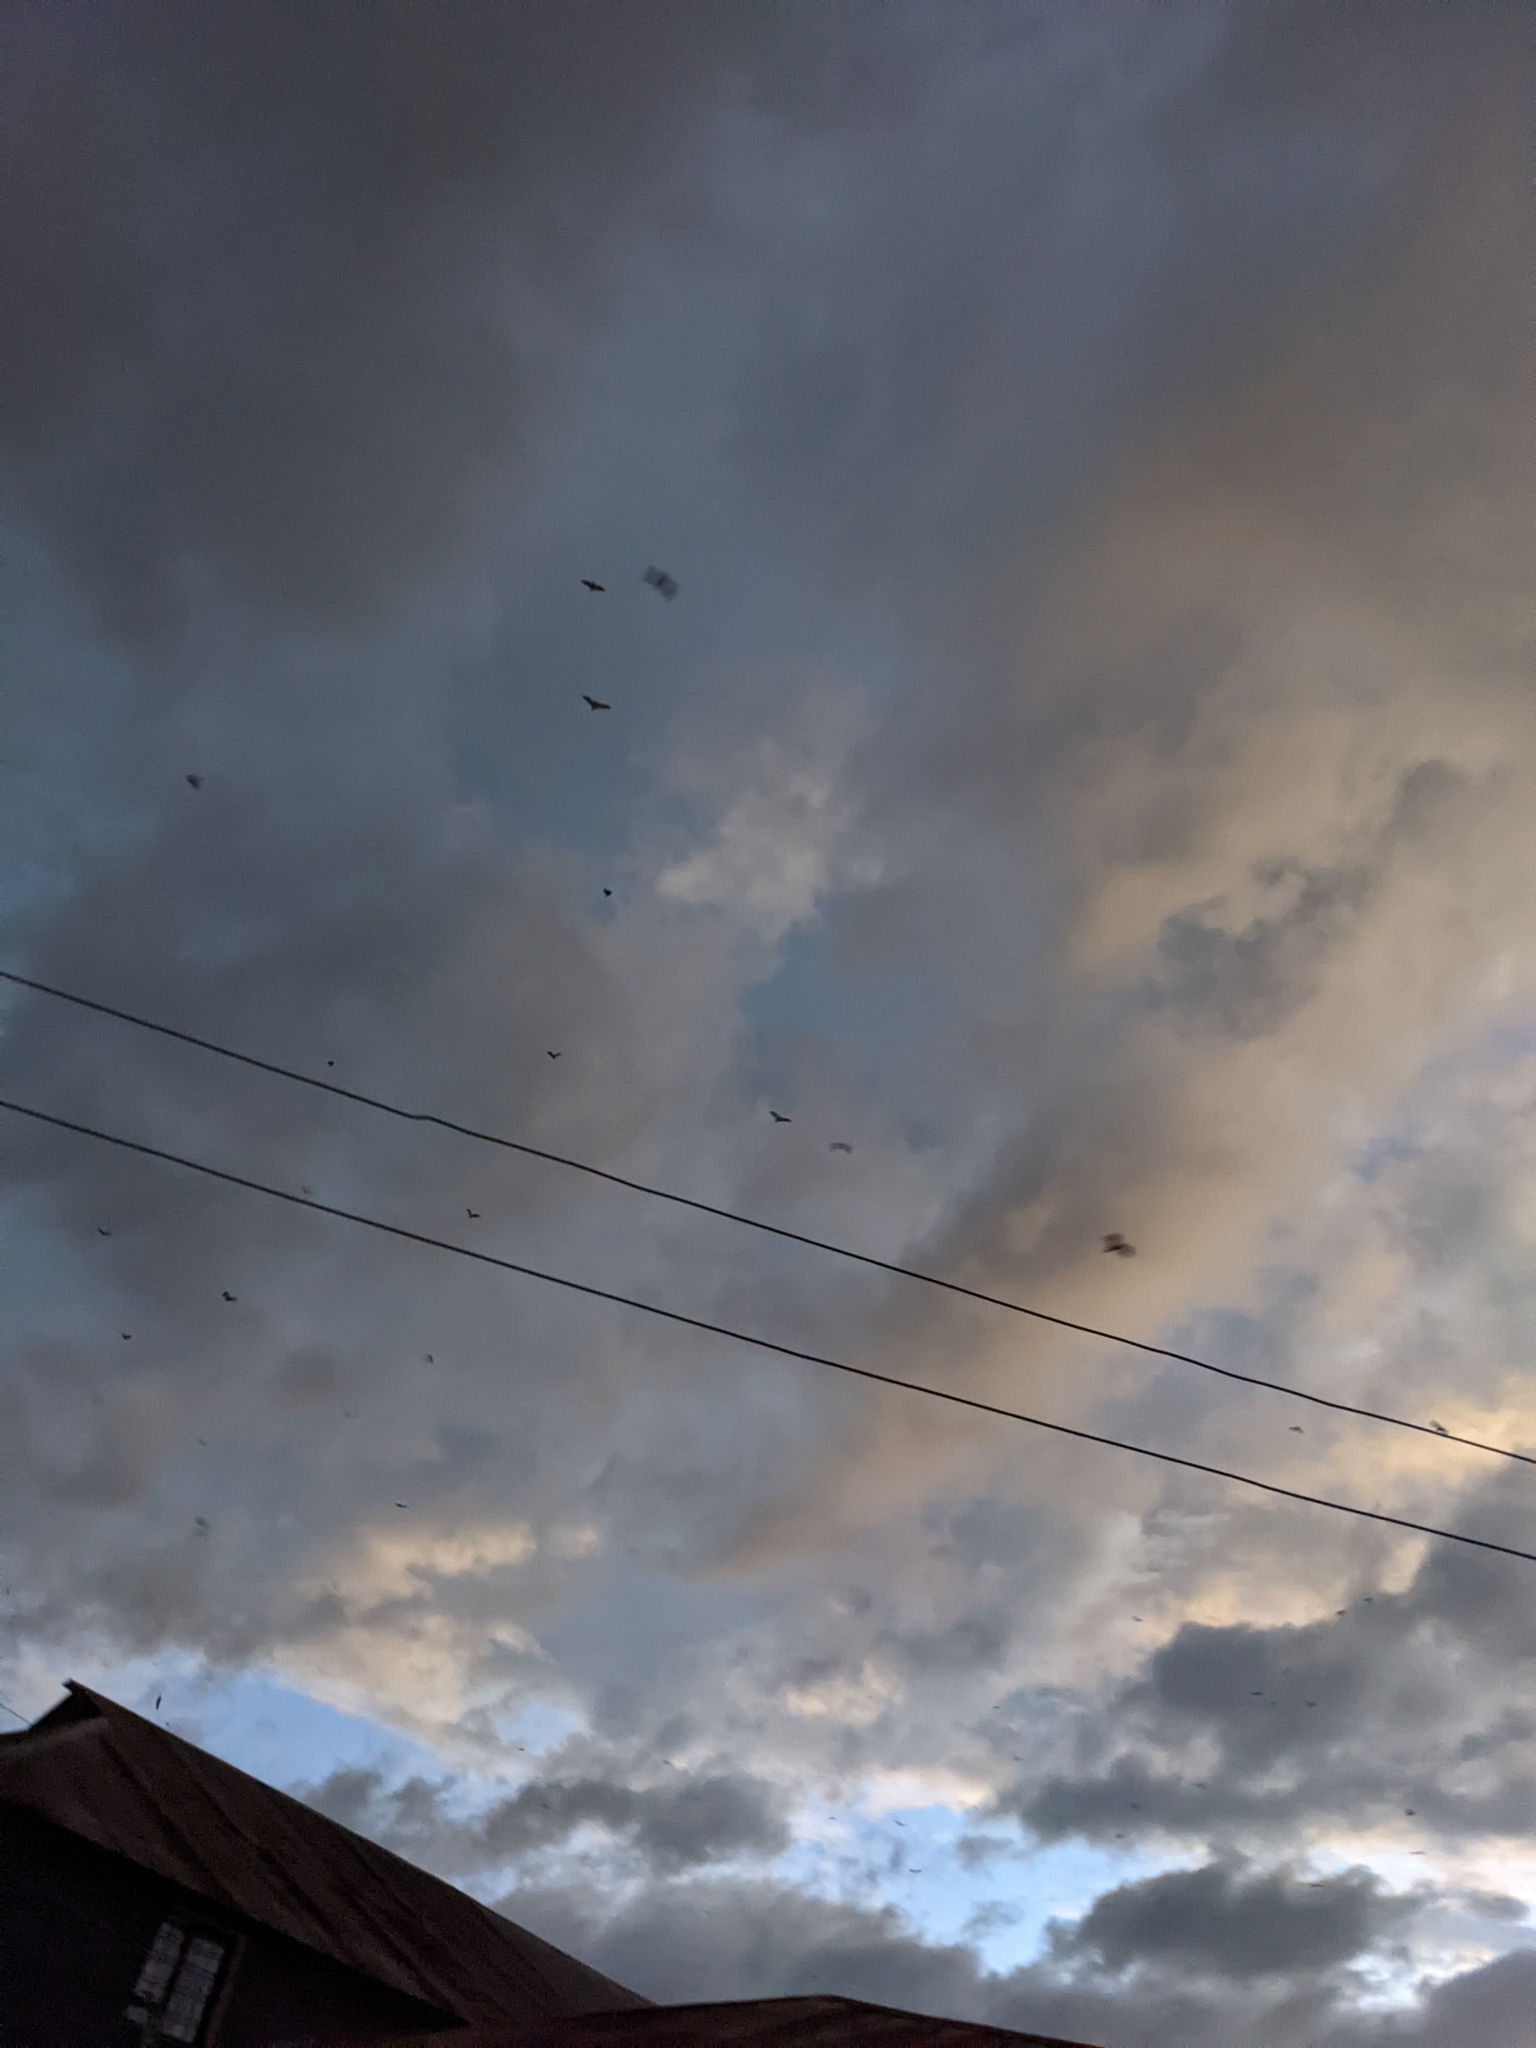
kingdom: Animalia
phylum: Chordata
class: Mammalia
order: Chiroptera
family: Pteropodidae
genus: Eidolon
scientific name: Eidolon helvum
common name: Straw-colored fruit bat
